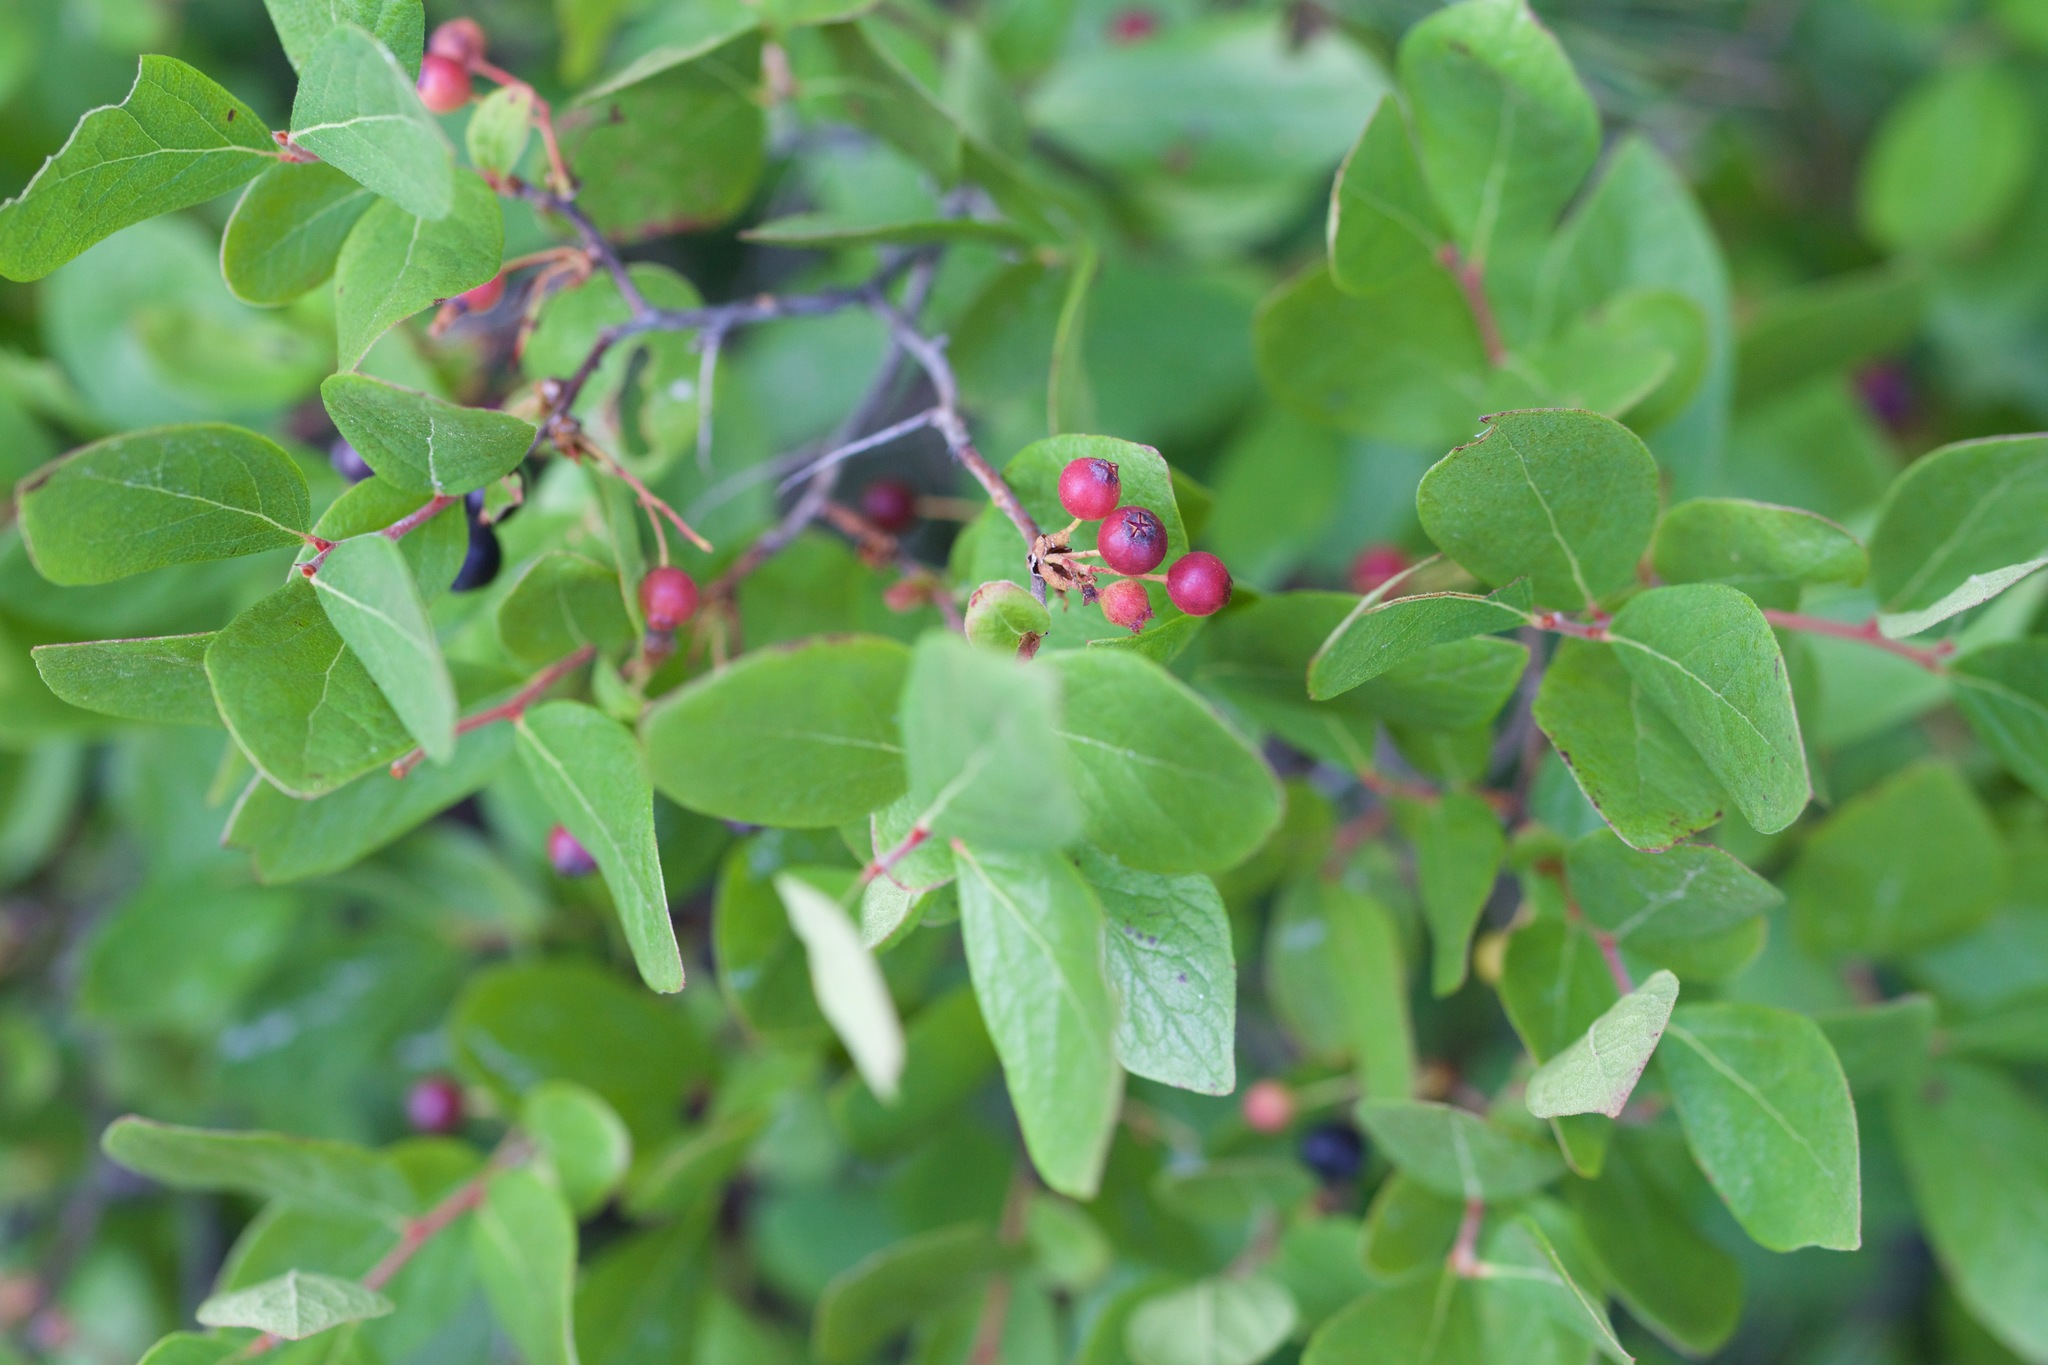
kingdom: Plantae
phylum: Tracheophyta
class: Magnoliopsida
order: Ericales
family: Ericaceae
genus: Gaylussacia
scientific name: Gaylussacia baccata
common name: Black huckleberry
